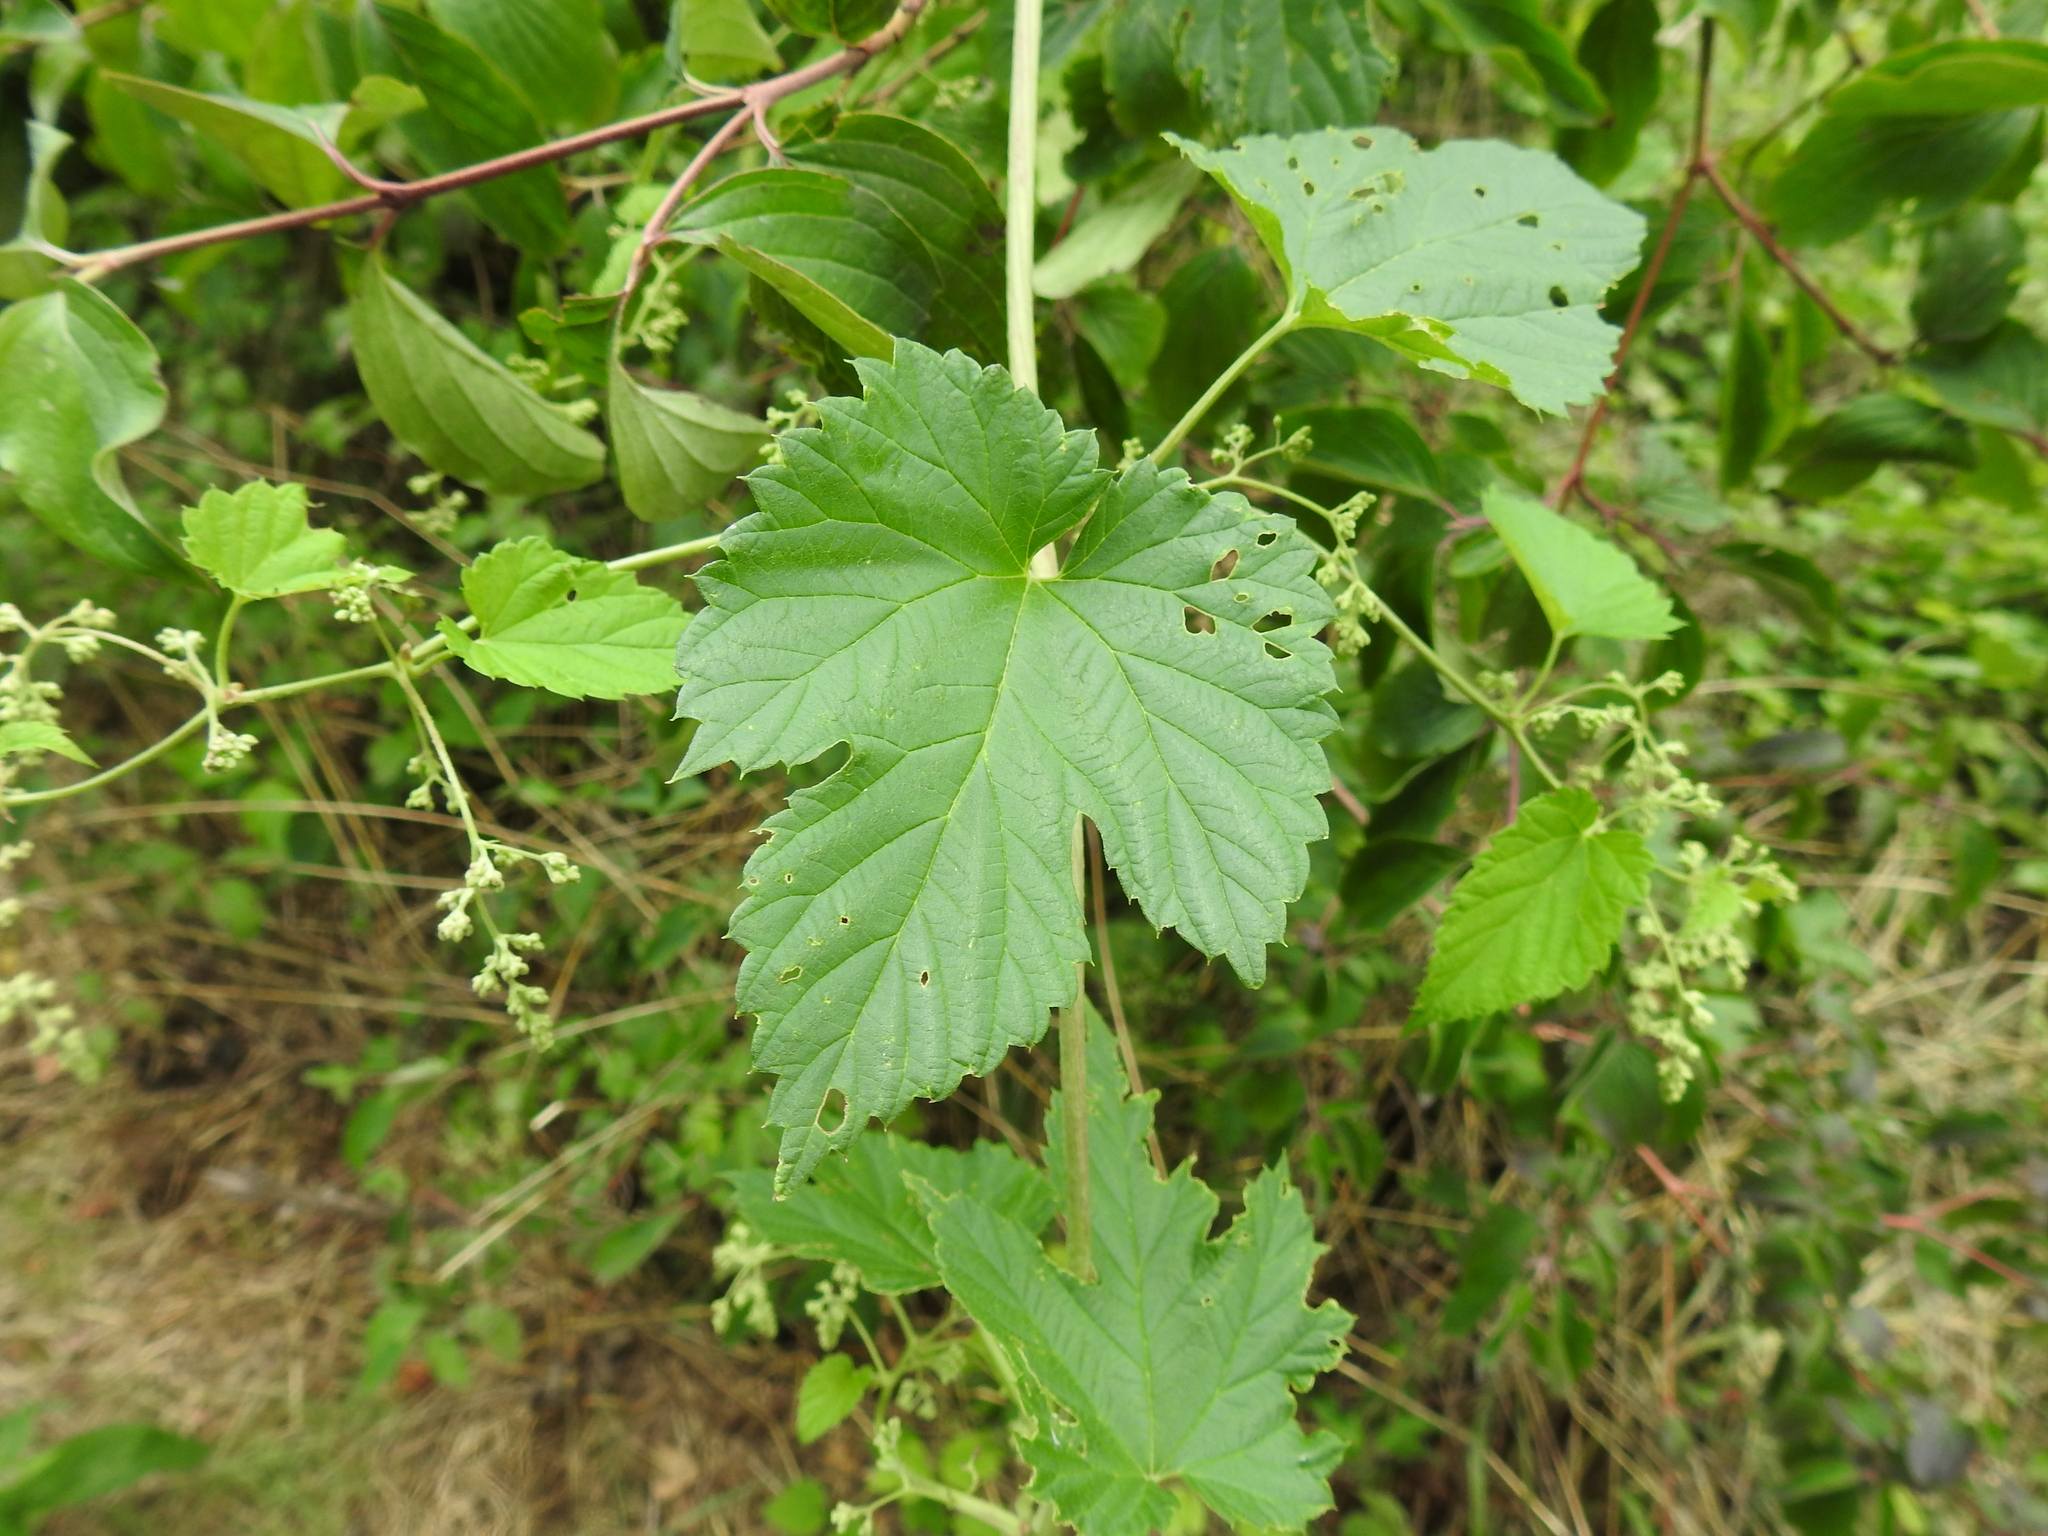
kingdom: Plantae
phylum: Tracheophyta
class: Magnoliopsida
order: Rosales
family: Cannabaceae
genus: Humulus
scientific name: Humulus lupulus
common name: Hop
